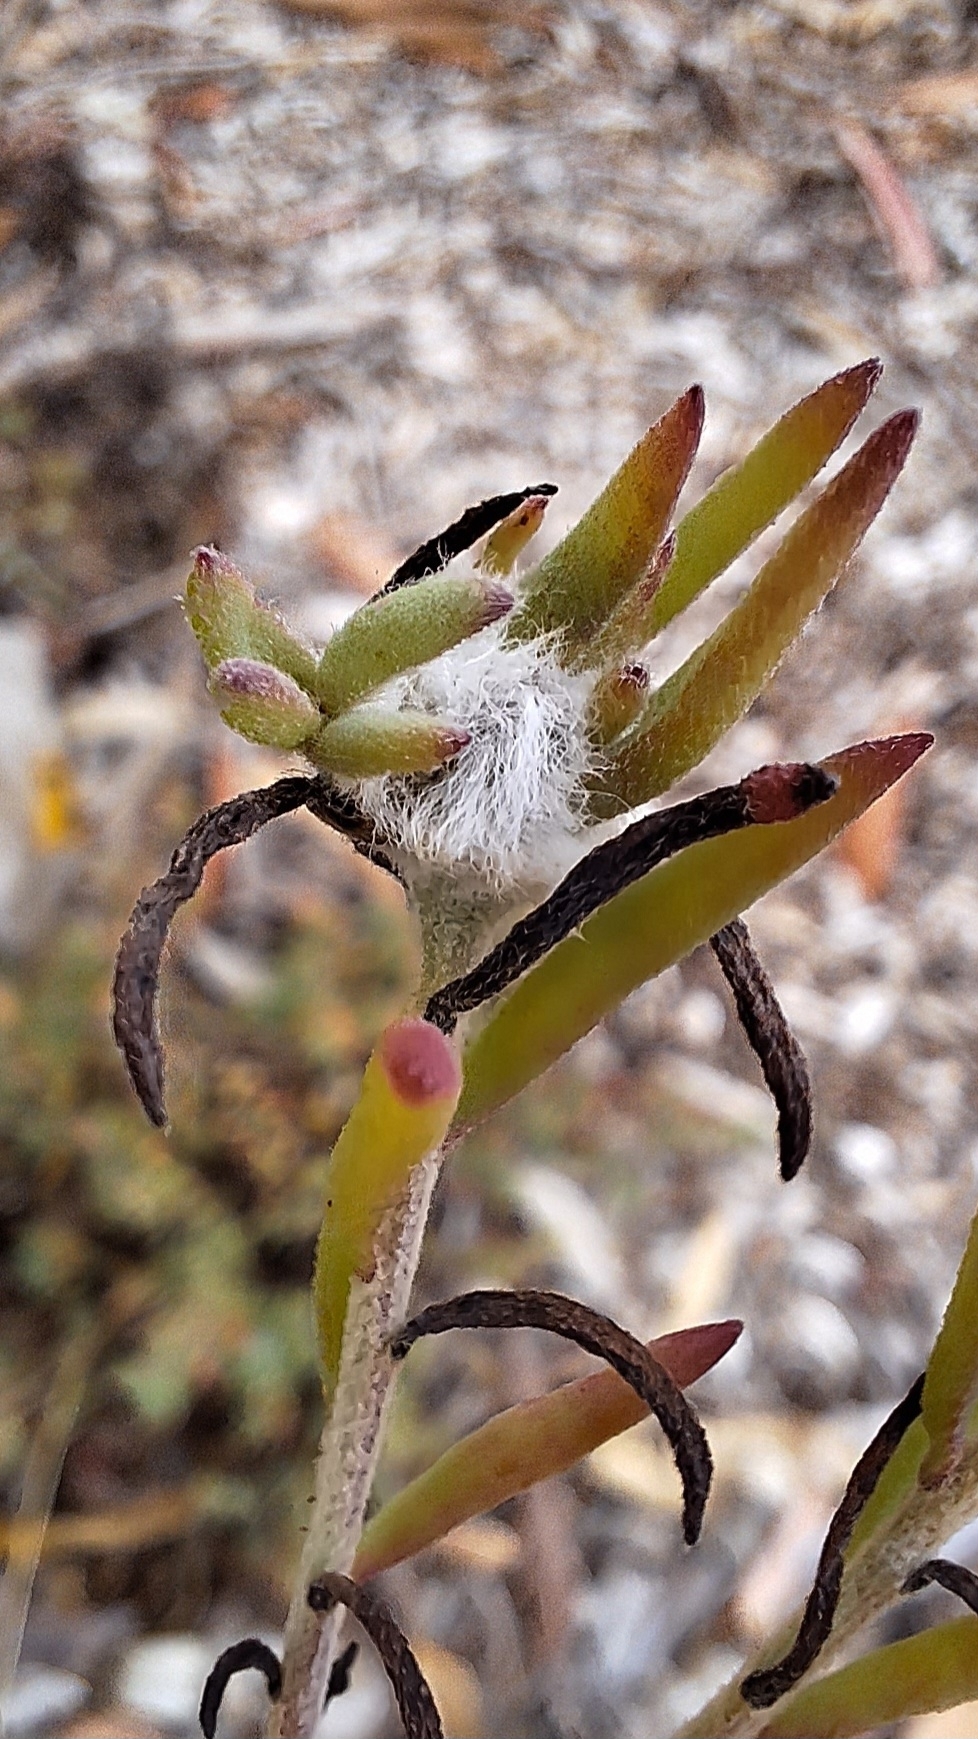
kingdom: Animalia
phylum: Arthropoda
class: Insecta
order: Diptera
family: Cecidomyiidae
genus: Asphondylia
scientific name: Asphondylia tonsura
